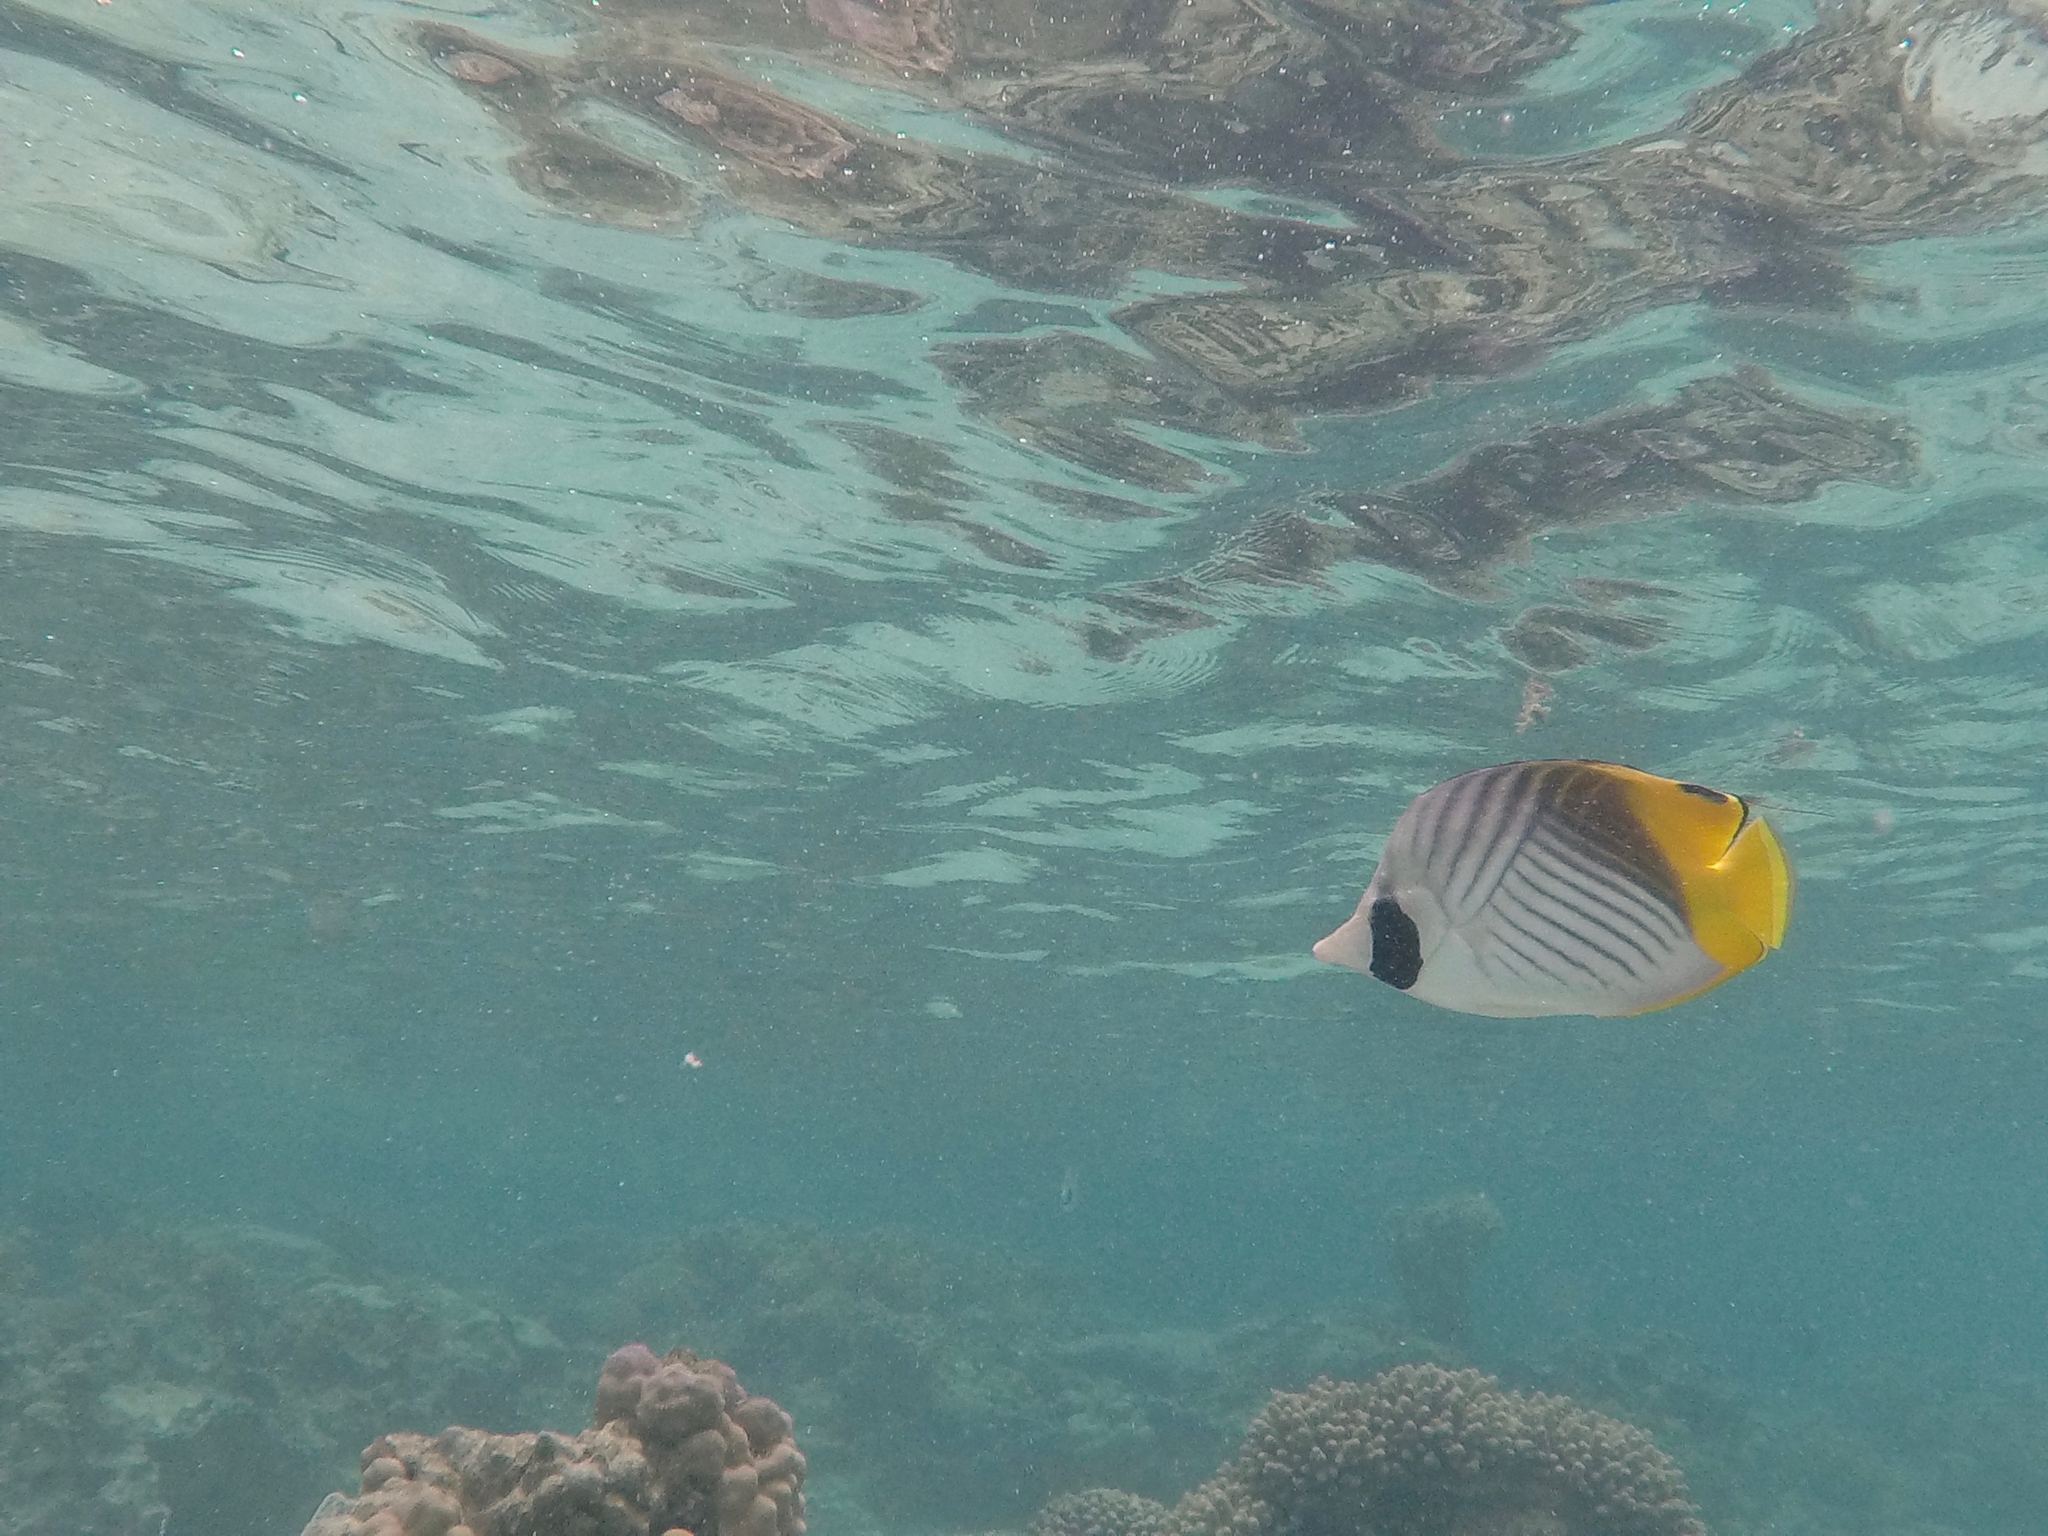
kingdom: Animalia
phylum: Chordata
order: Perciformes
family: Chaetodontidae
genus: Chaetodon
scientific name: Chaetodon auriga
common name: Threadfin butterflyfish
